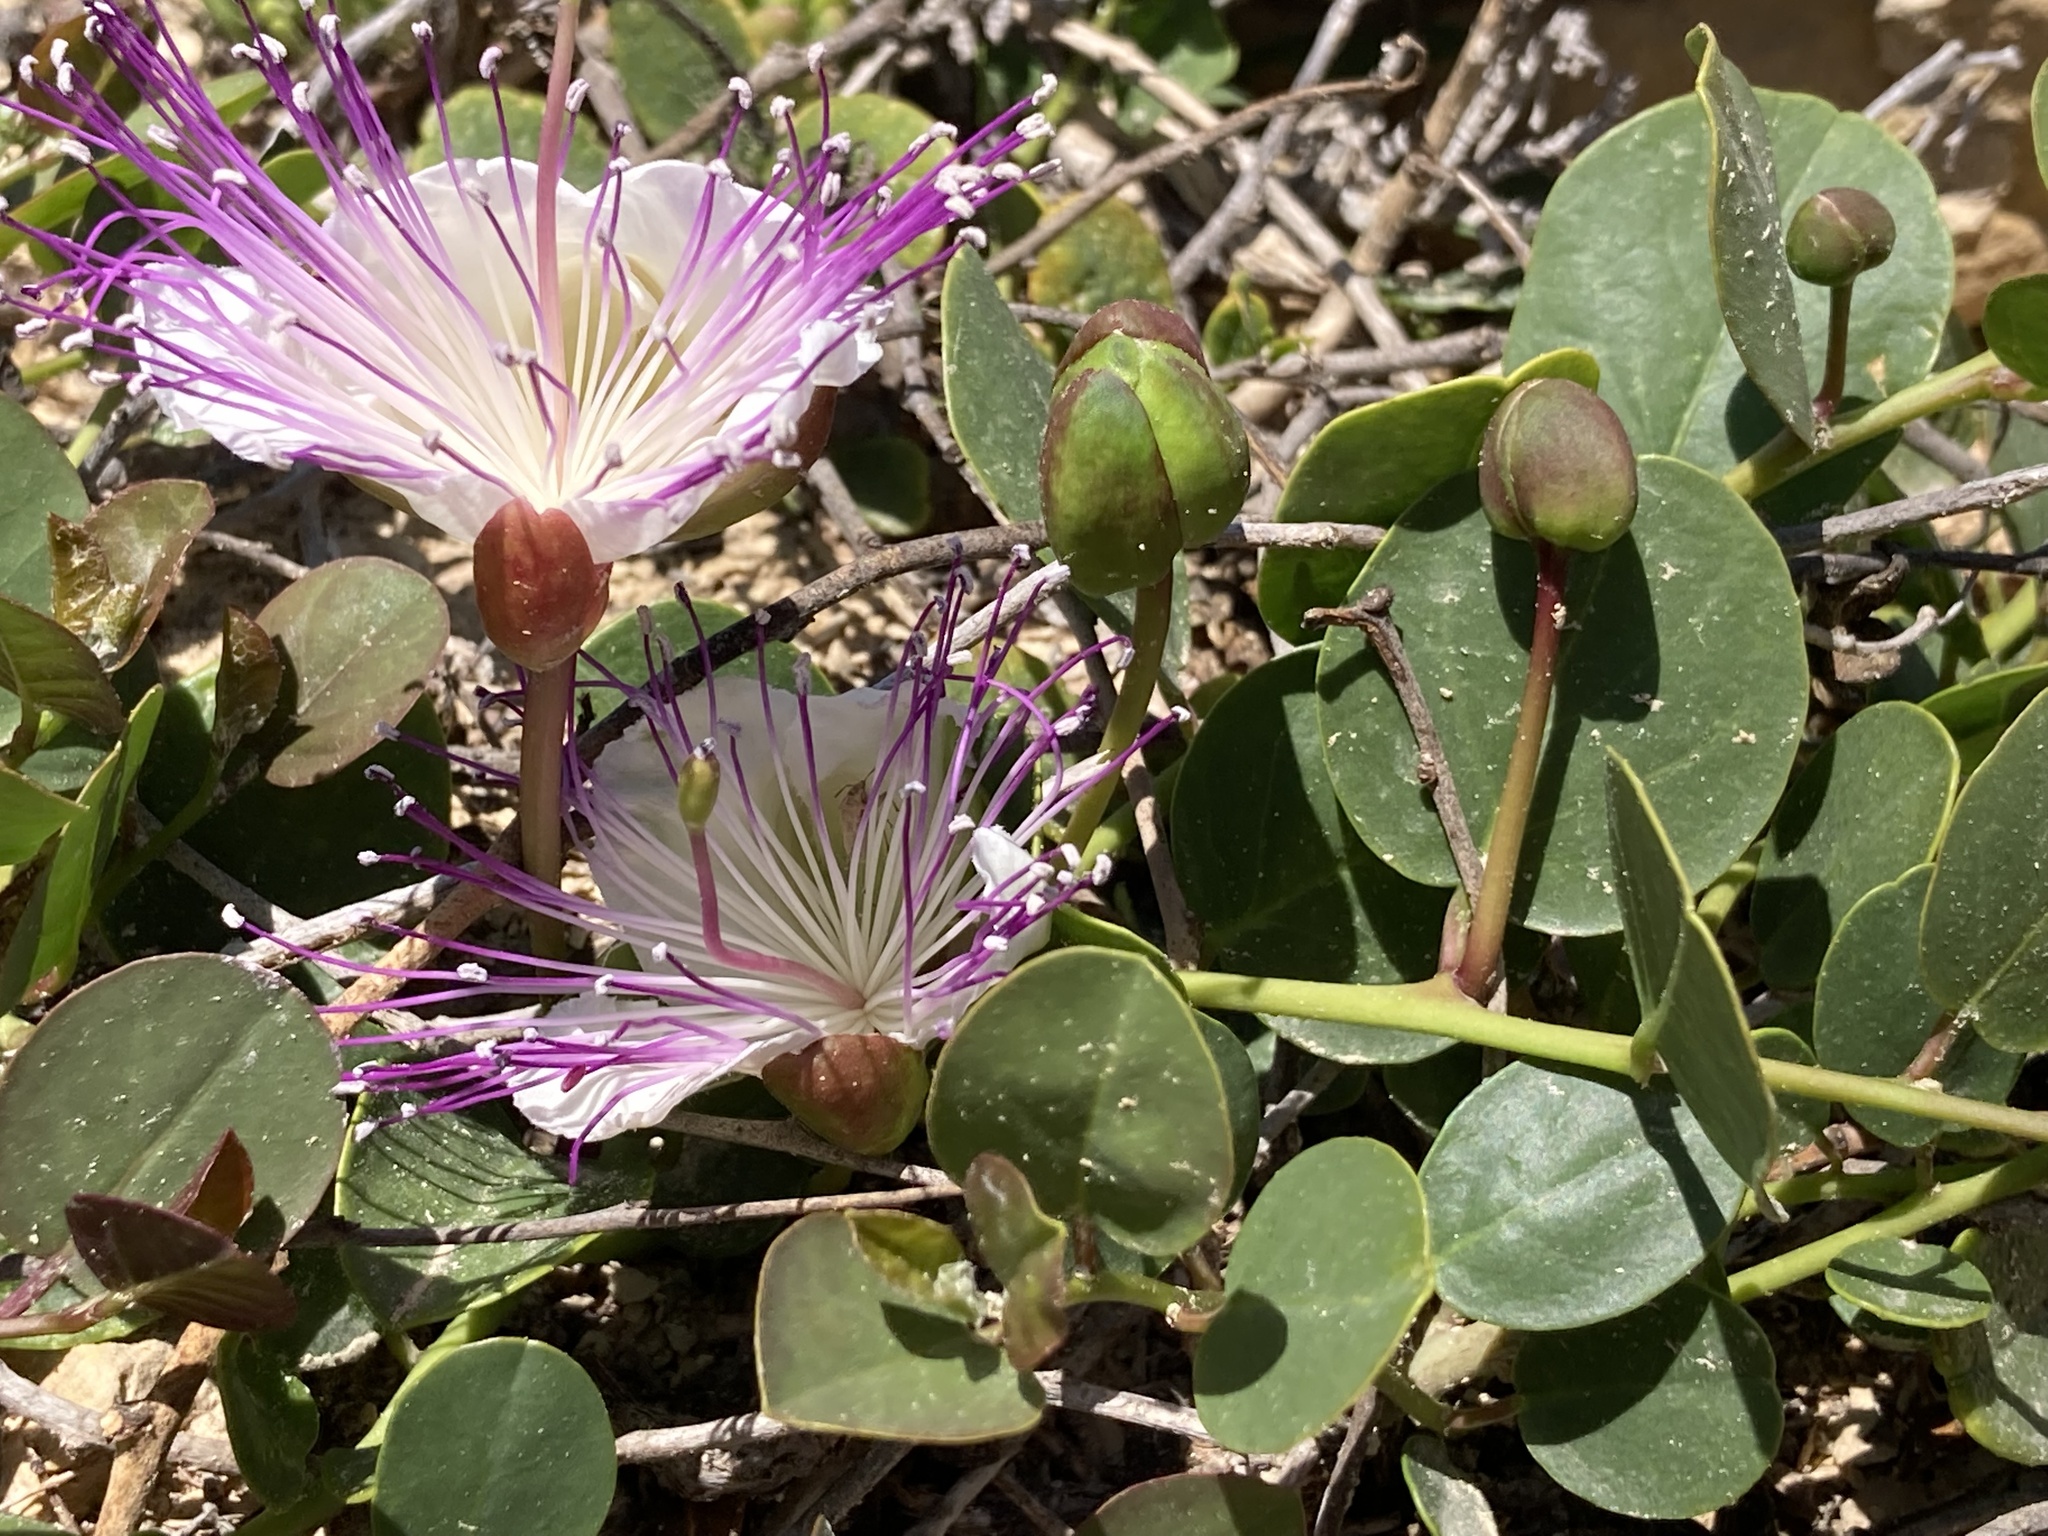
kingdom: Plantae
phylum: Tracheophyta
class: Magnoliopsida
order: Brassicales
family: Capparaceae
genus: Capparis
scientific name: Capparis orientalis
